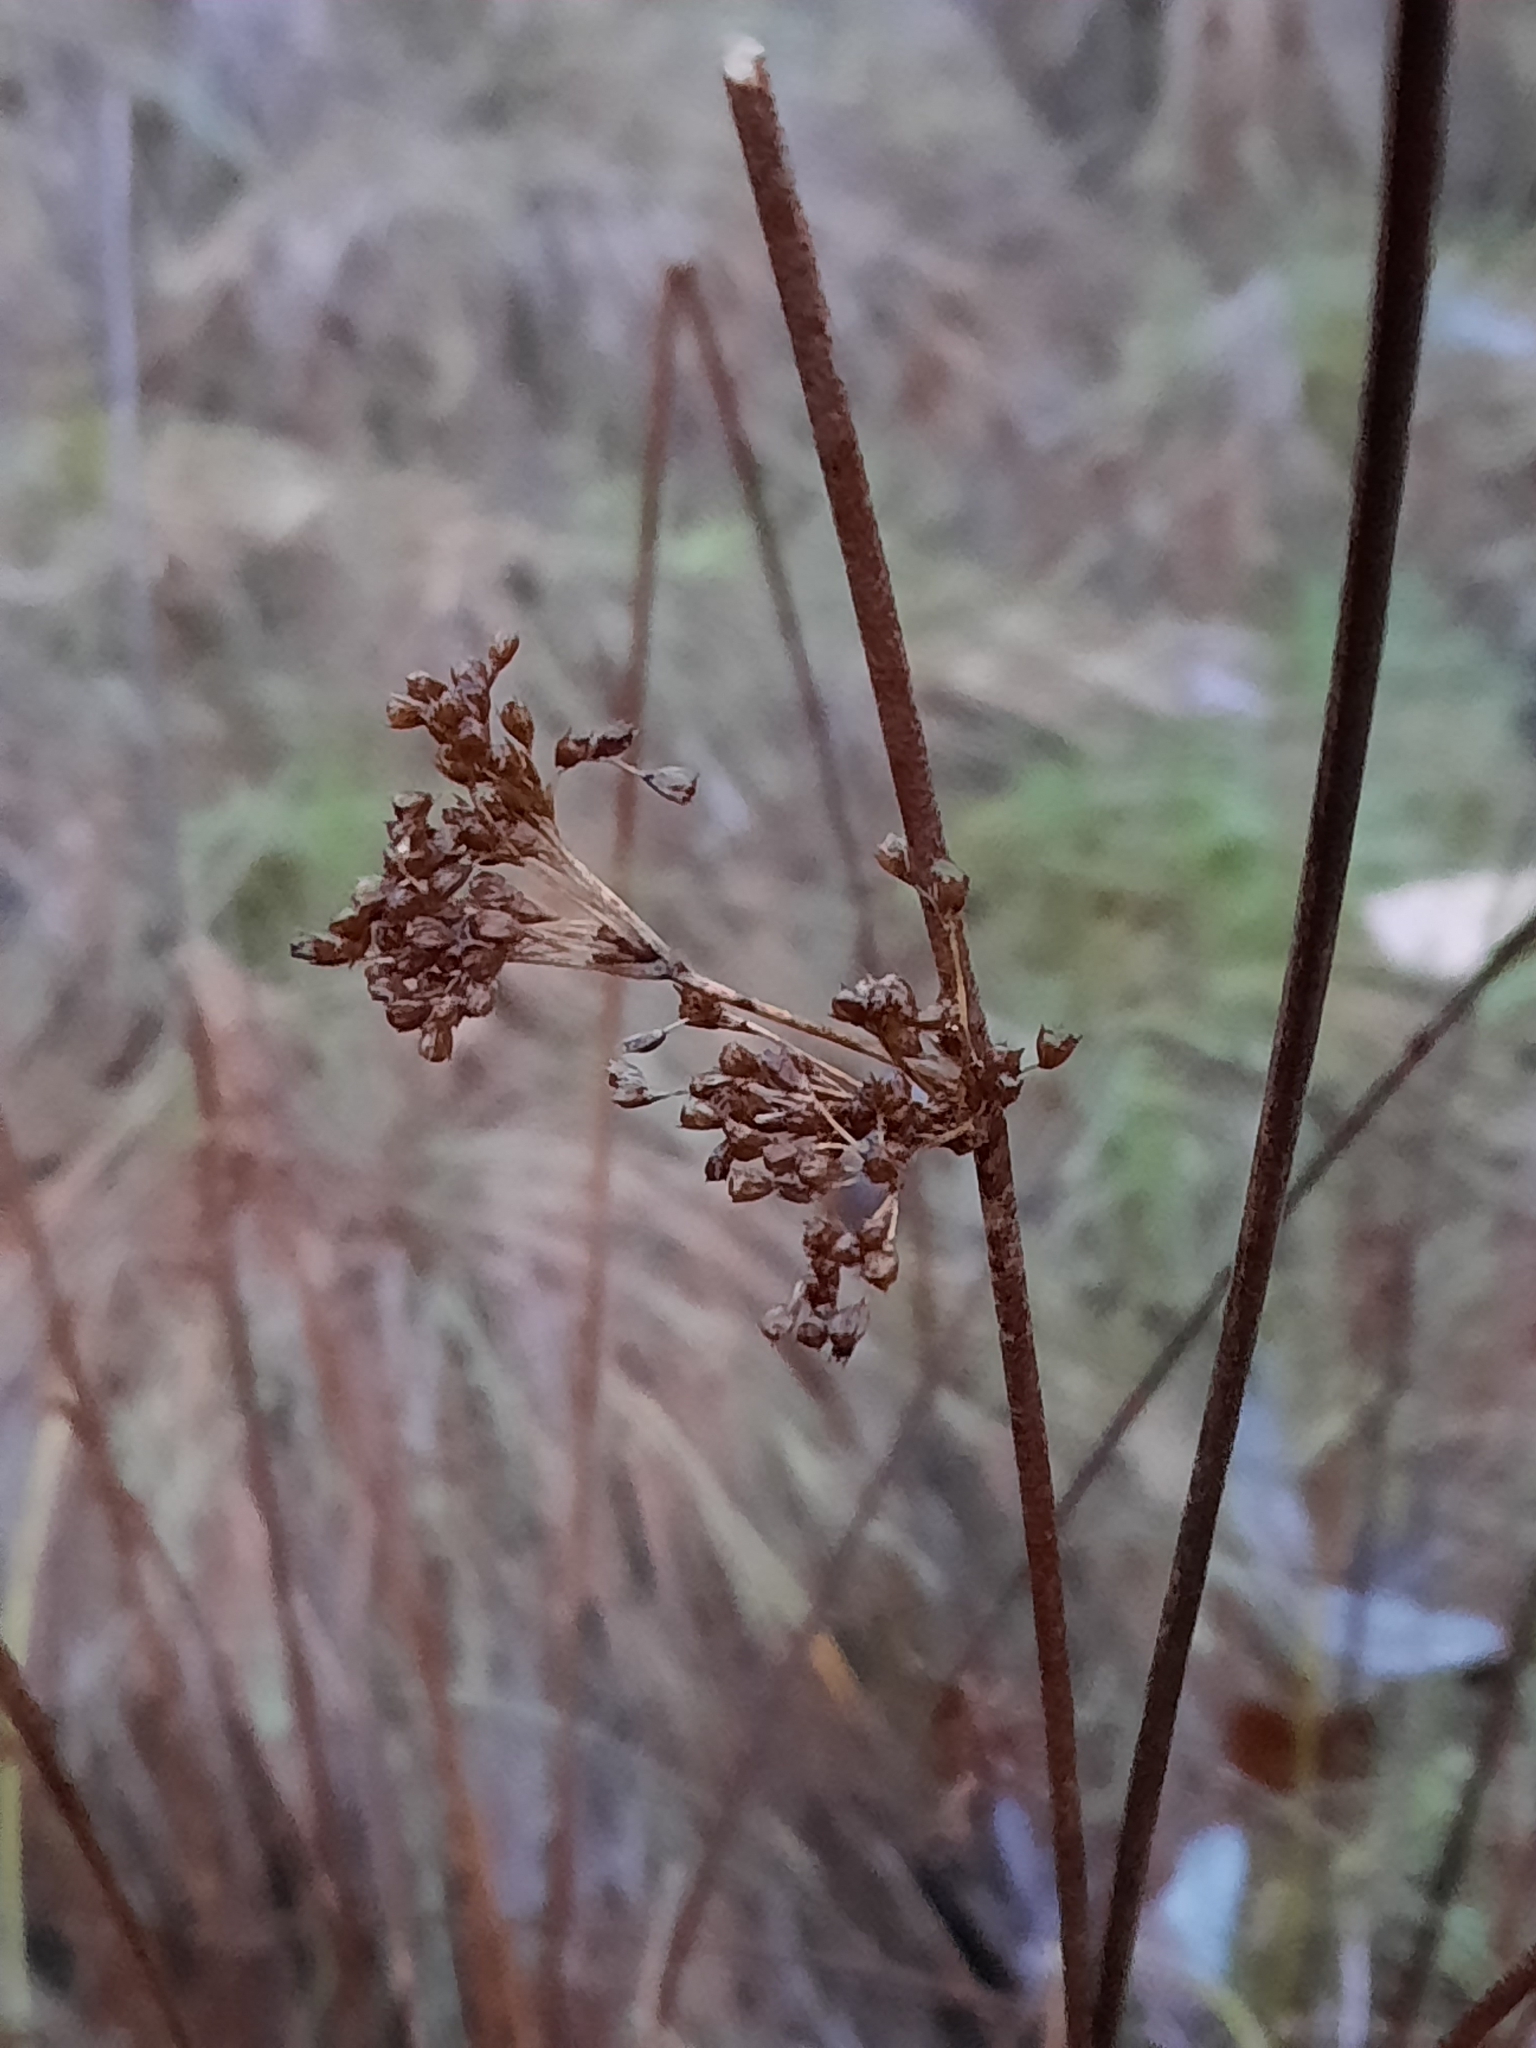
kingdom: Plantae
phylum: Tracheophyta
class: Liliopsida
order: Poales
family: Juncaceae
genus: Juncus
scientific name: Juncus effusus
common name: Soft rush
